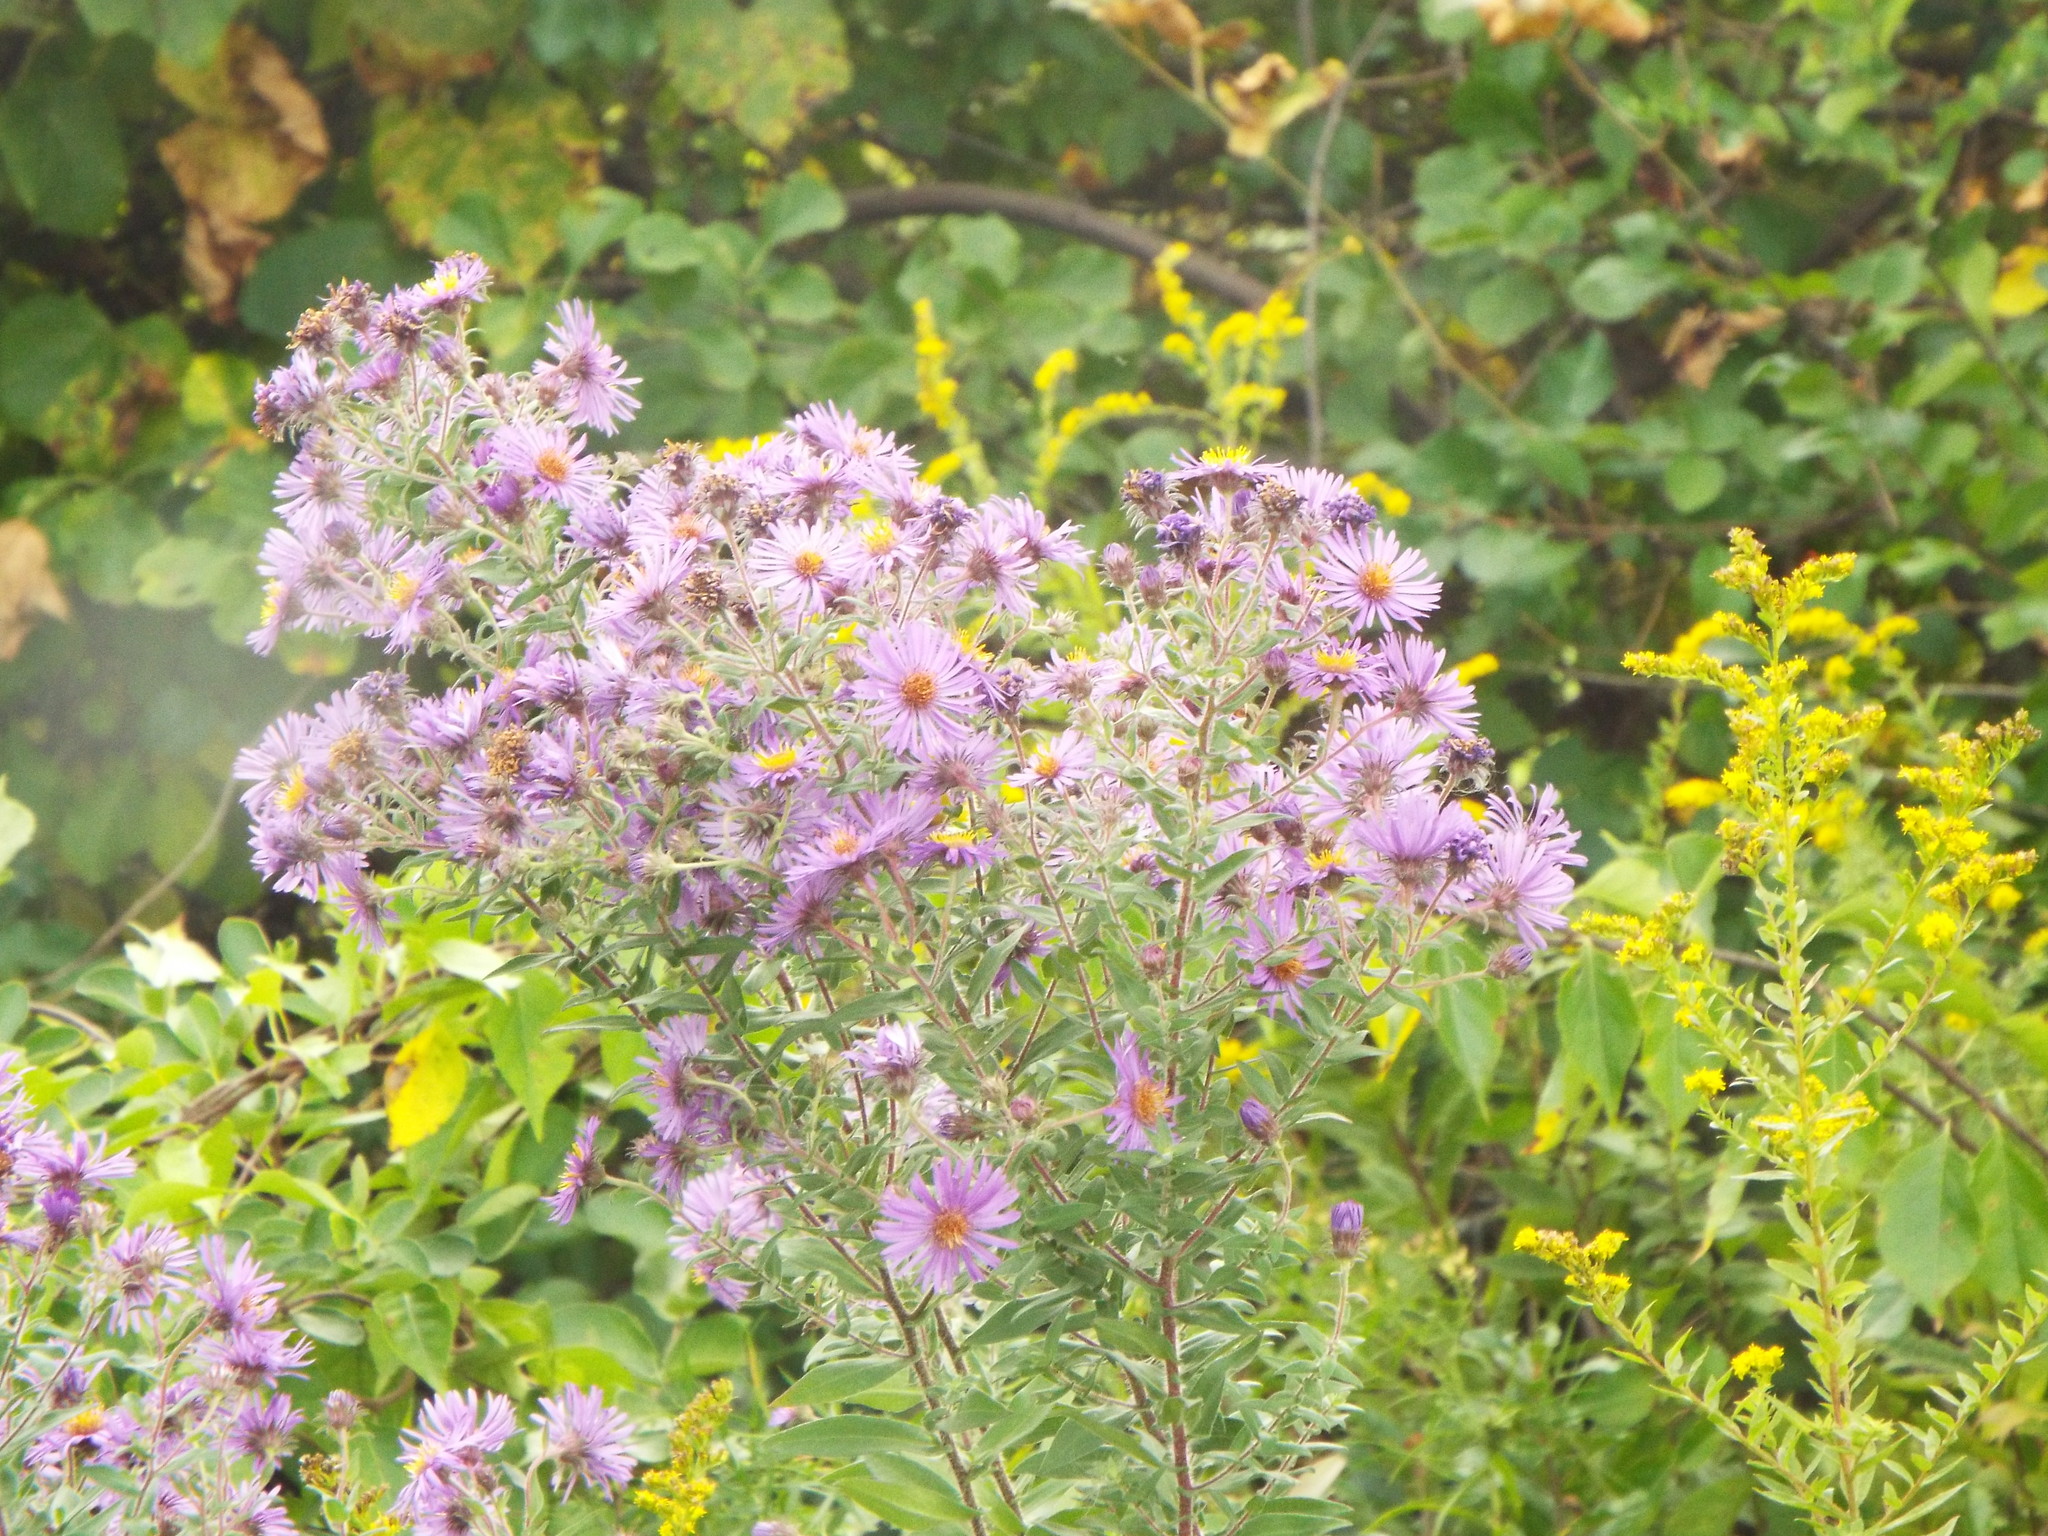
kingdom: Plantae
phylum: Tracheophyta
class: Magnoliopsida
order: Asterales
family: Asteraceae
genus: Symphyotrichum
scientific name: Symphyotrichum novae-angliae
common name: Michaelmas daisy
